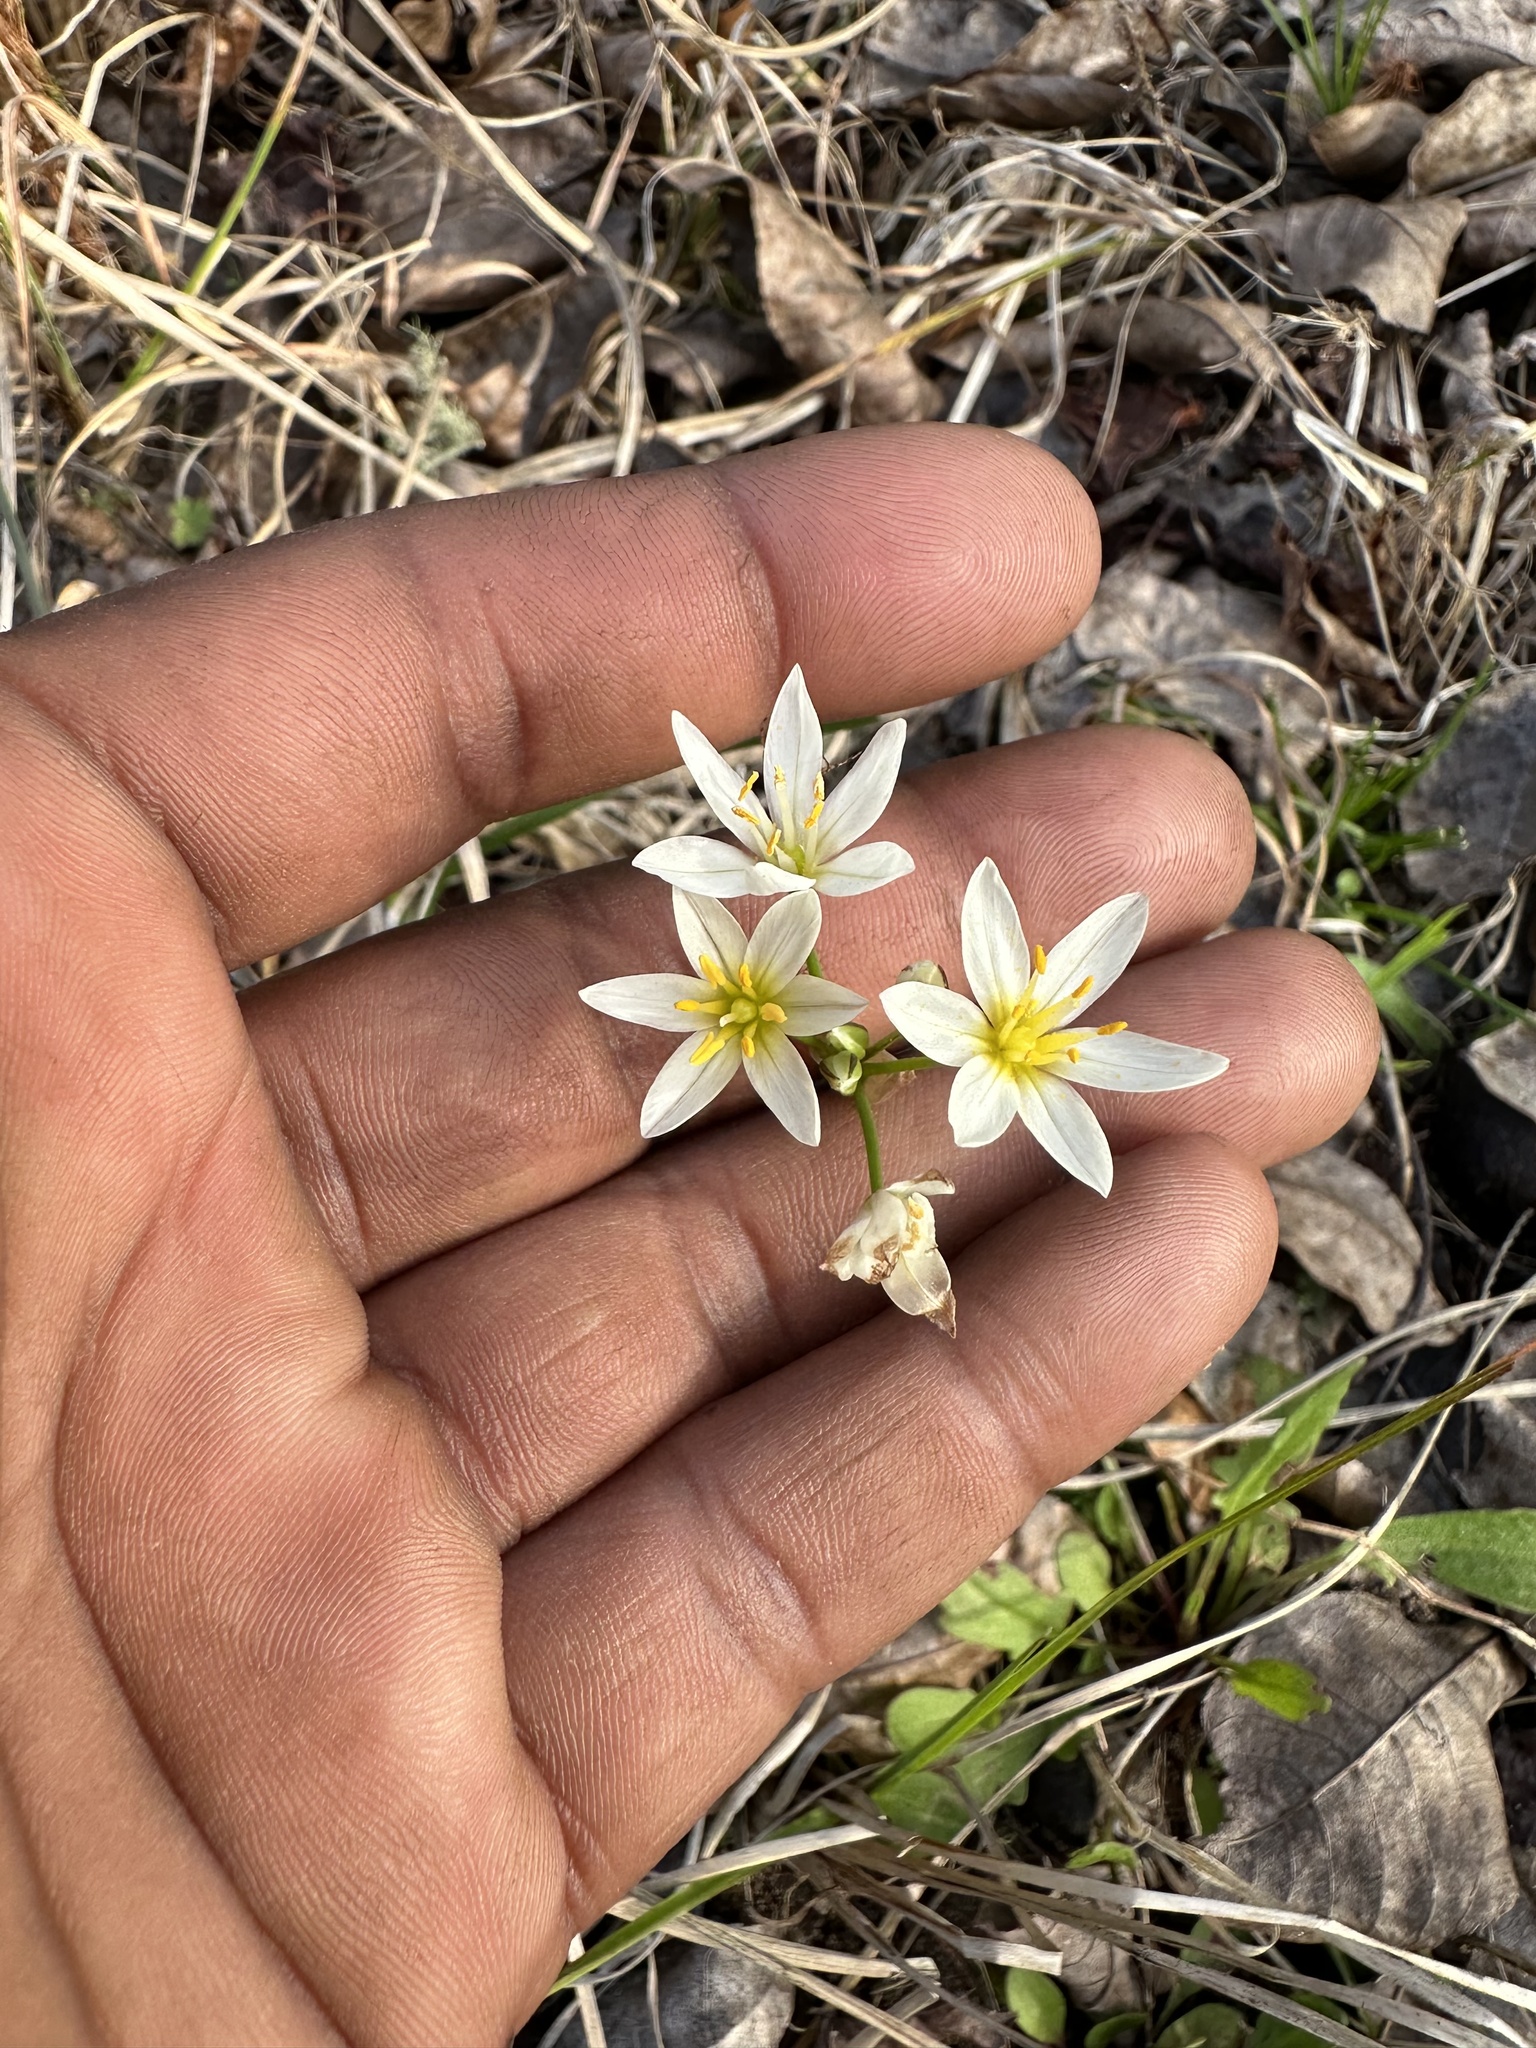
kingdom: Plantae
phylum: Tracheophyta
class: Liliopsida
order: Asparagales
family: Amaryllidaceae
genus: Nothoscordum
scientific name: Nothoscordum bivalve
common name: Crow-poison
